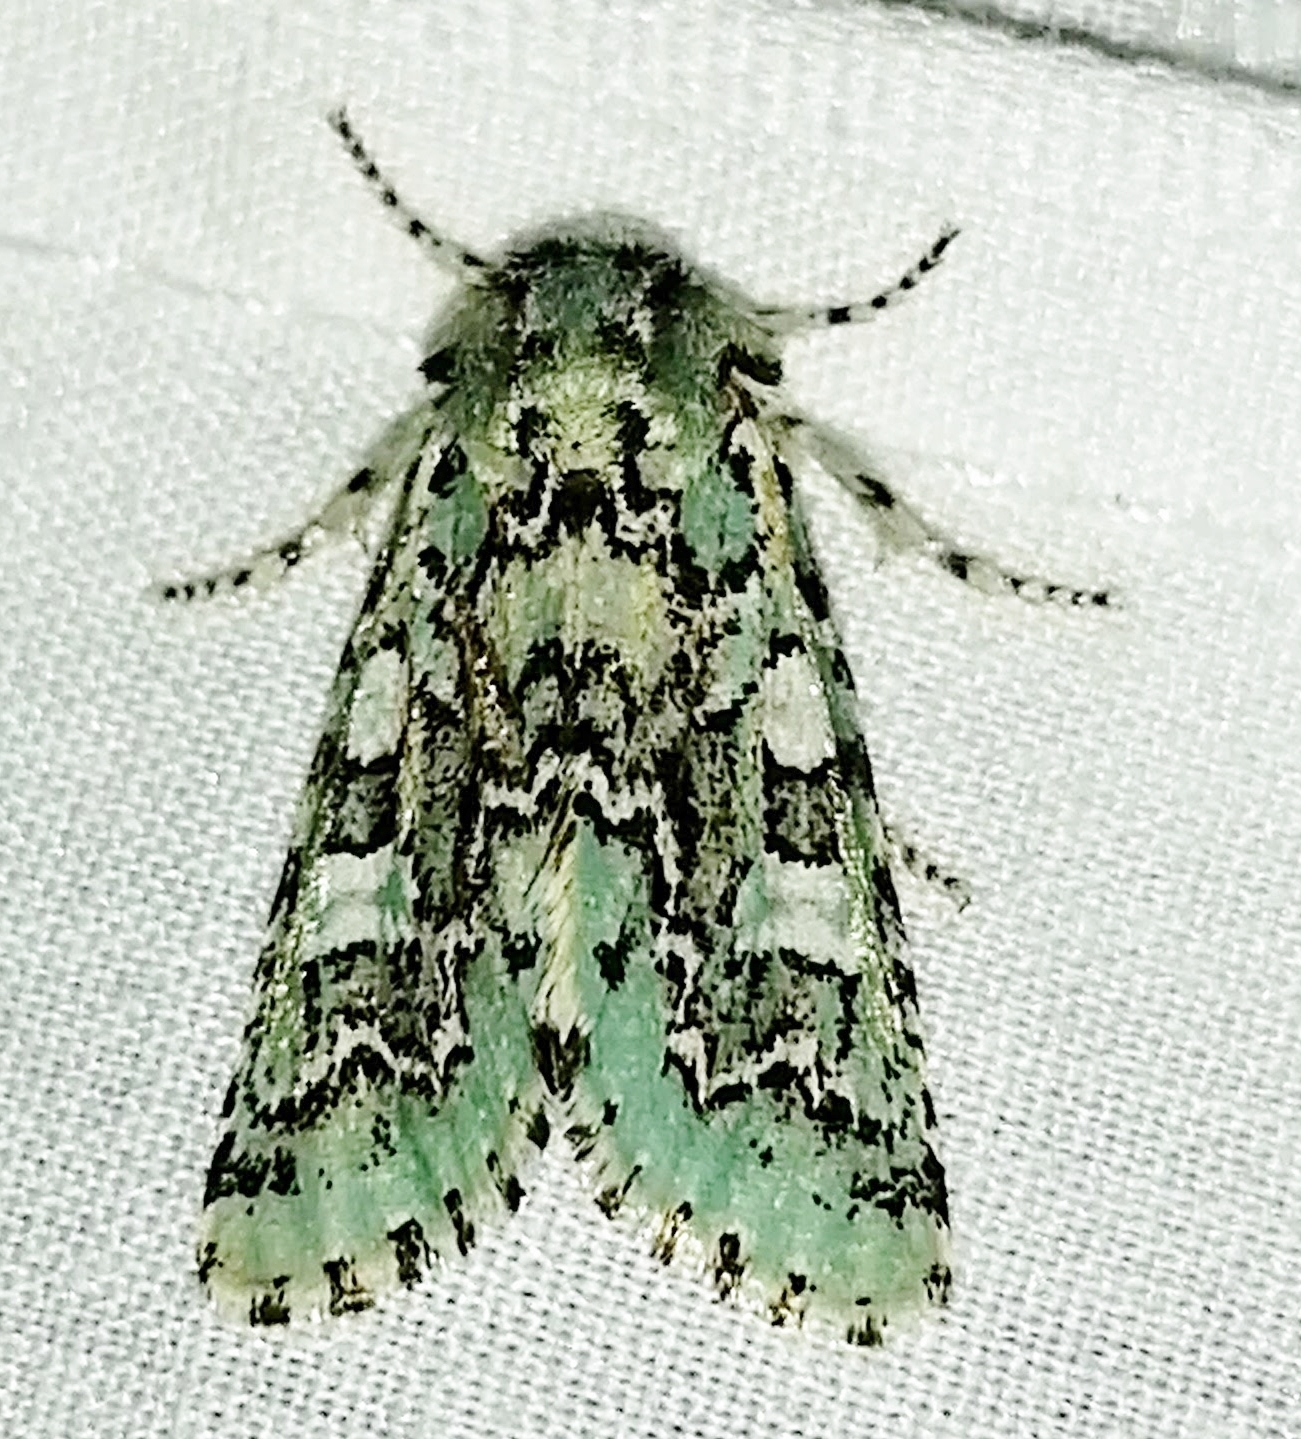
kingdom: Animalia
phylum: Arthropoda
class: Insecta
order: Lepidoptera
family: Noctuidae
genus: Feralia
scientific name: Feralia jocosa
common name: Joker
